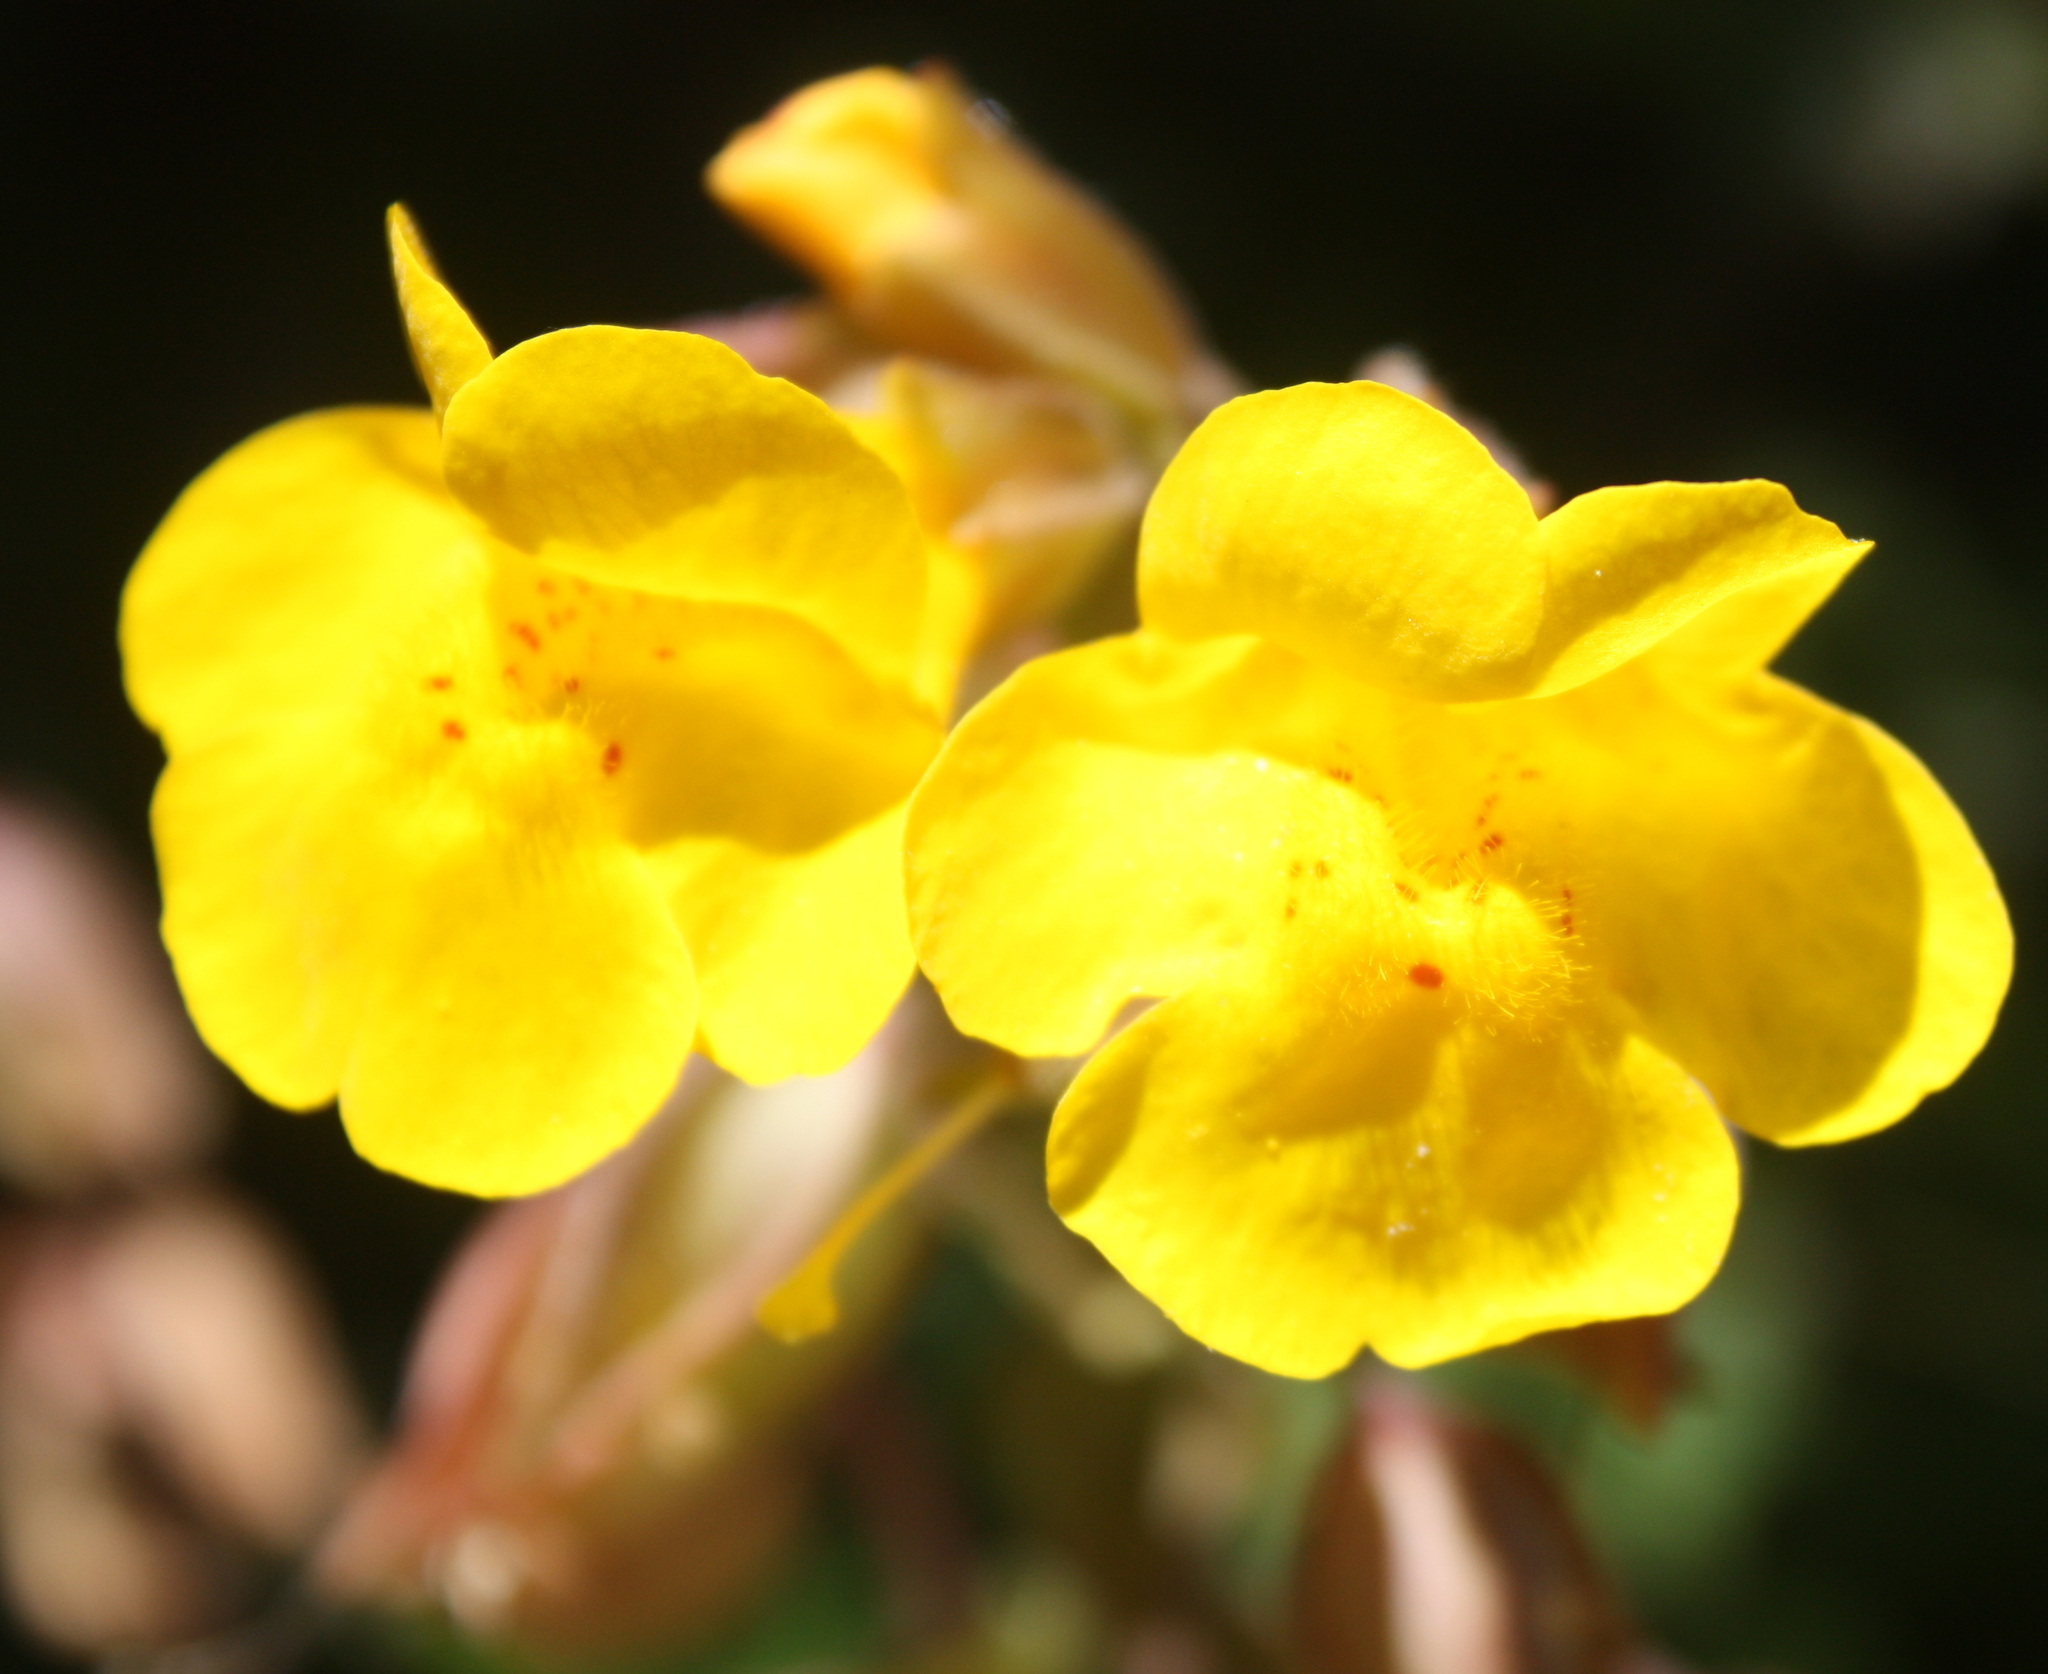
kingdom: Plantae
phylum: Tracheophyta
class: Magnoliopsida
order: Lamiales
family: Phrymaceae
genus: Erythranthe
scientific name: Erythranthe guttata
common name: Monkeyflower
